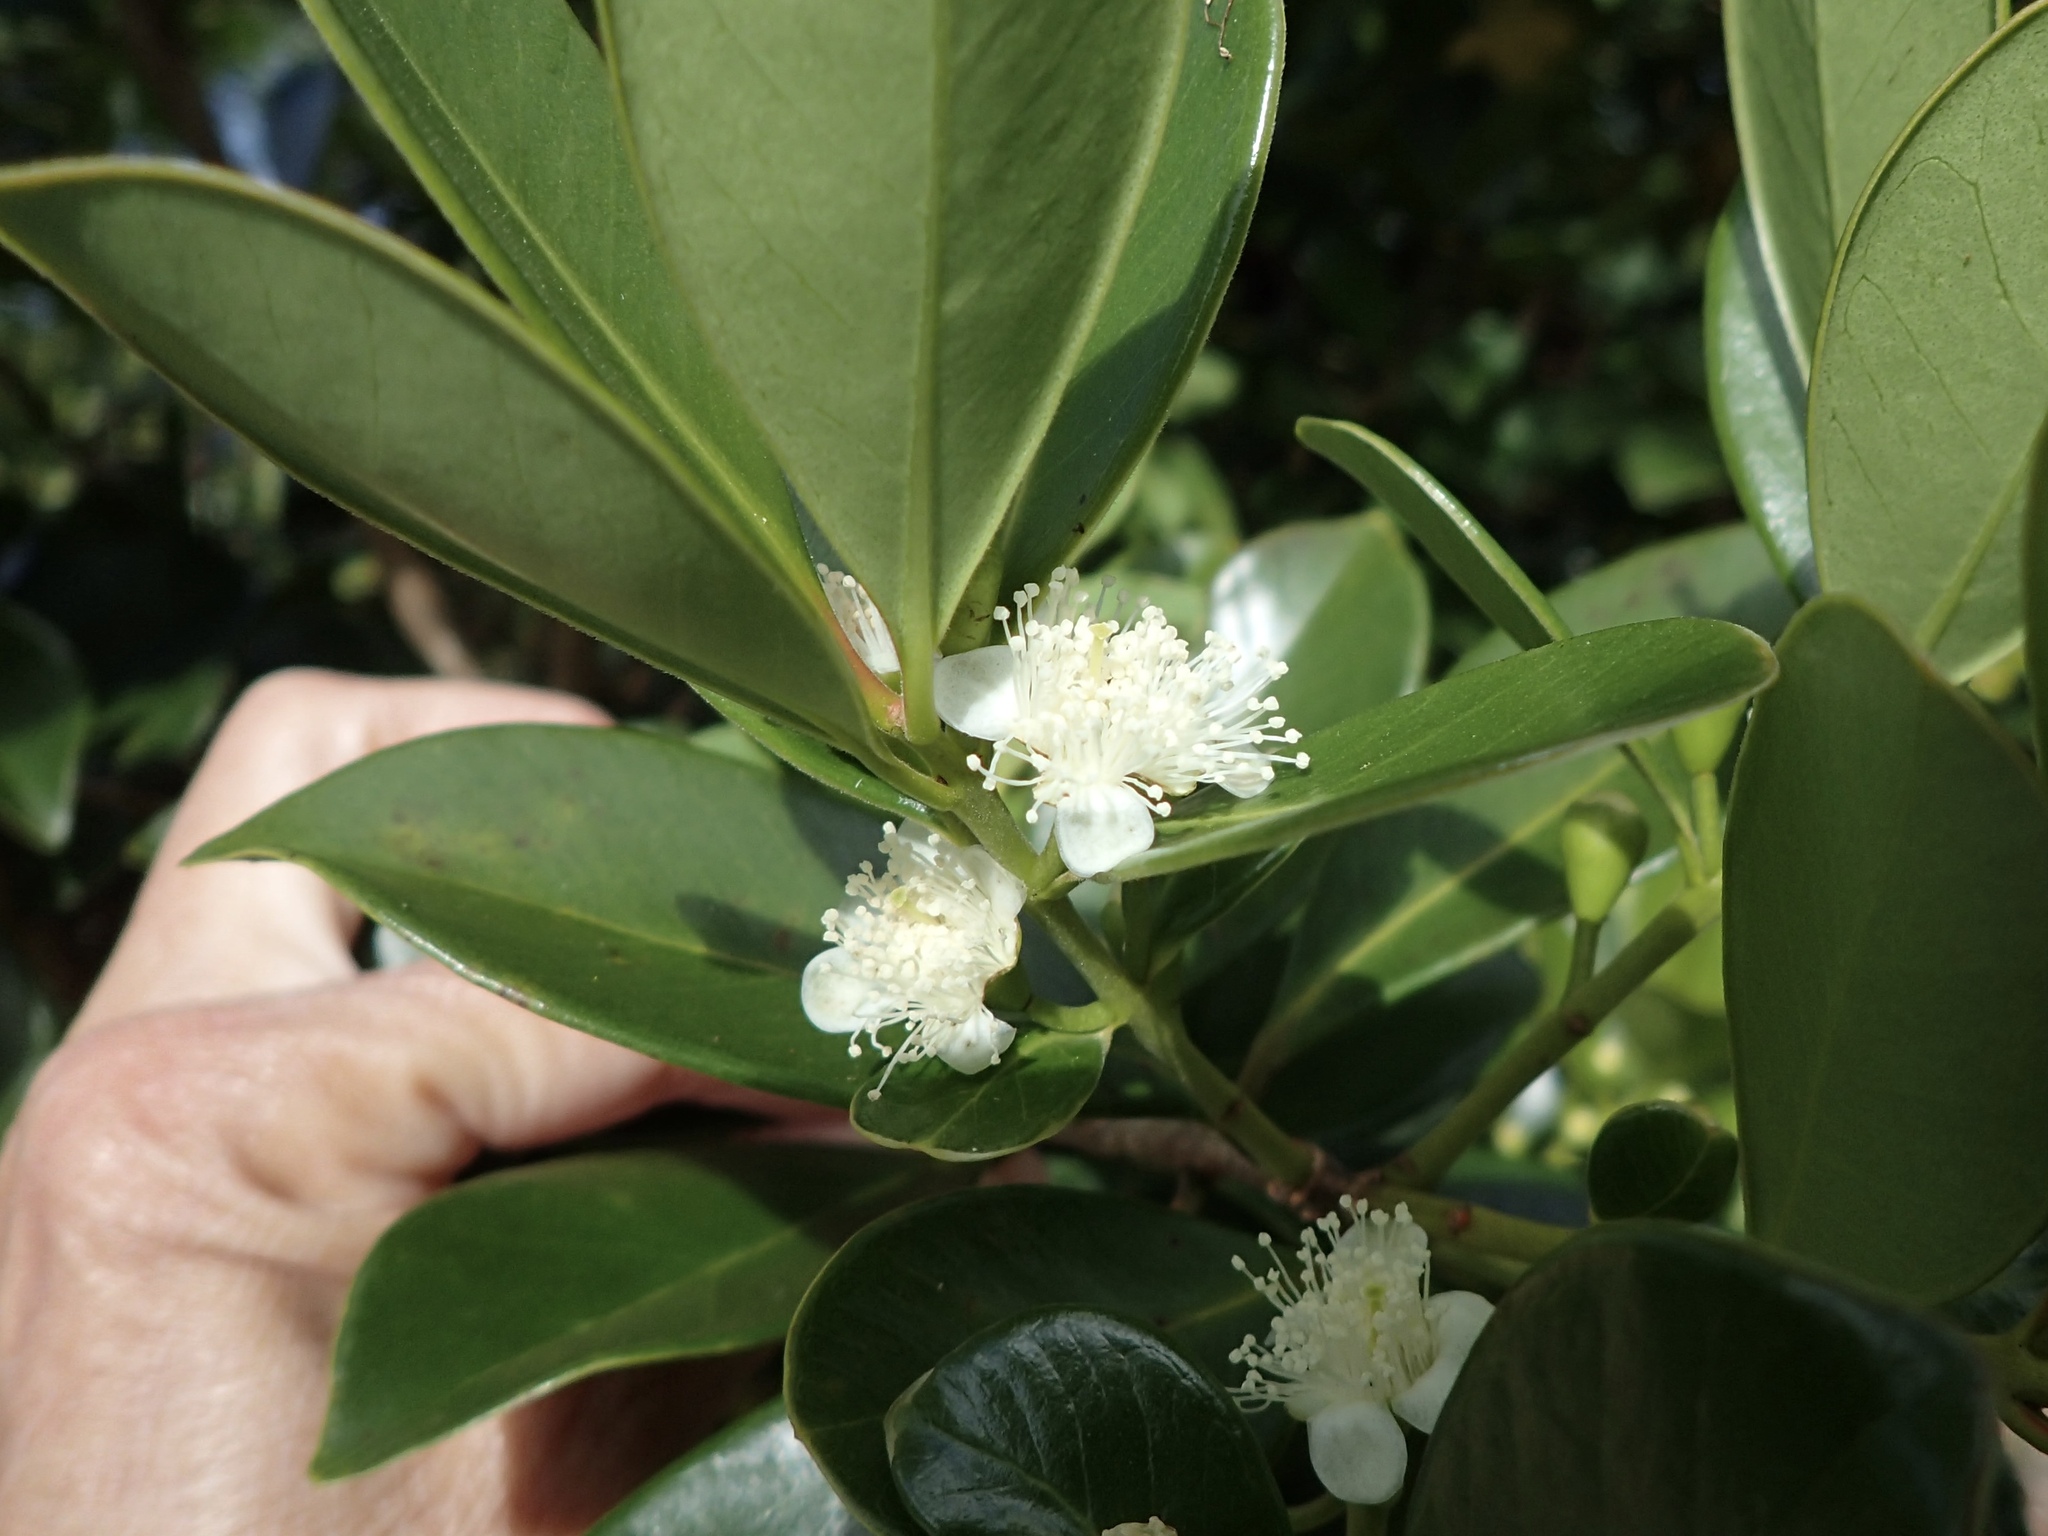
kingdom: Plantae
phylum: Tracheophyta
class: Magnoliopsida
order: Myrtales
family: Myrtaceae
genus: Psidium
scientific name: Psidium cattleianum
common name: Strawberry guava
